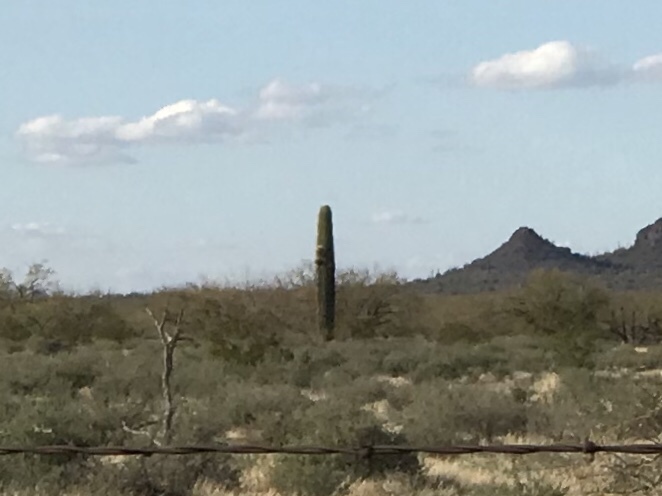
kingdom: Plantae
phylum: Tracheophyta
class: Magnoliopsida
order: Caryophyllales
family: Cactaceae
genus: Carnegiea
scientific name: Carnegiea gigantea
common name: Saguaro
